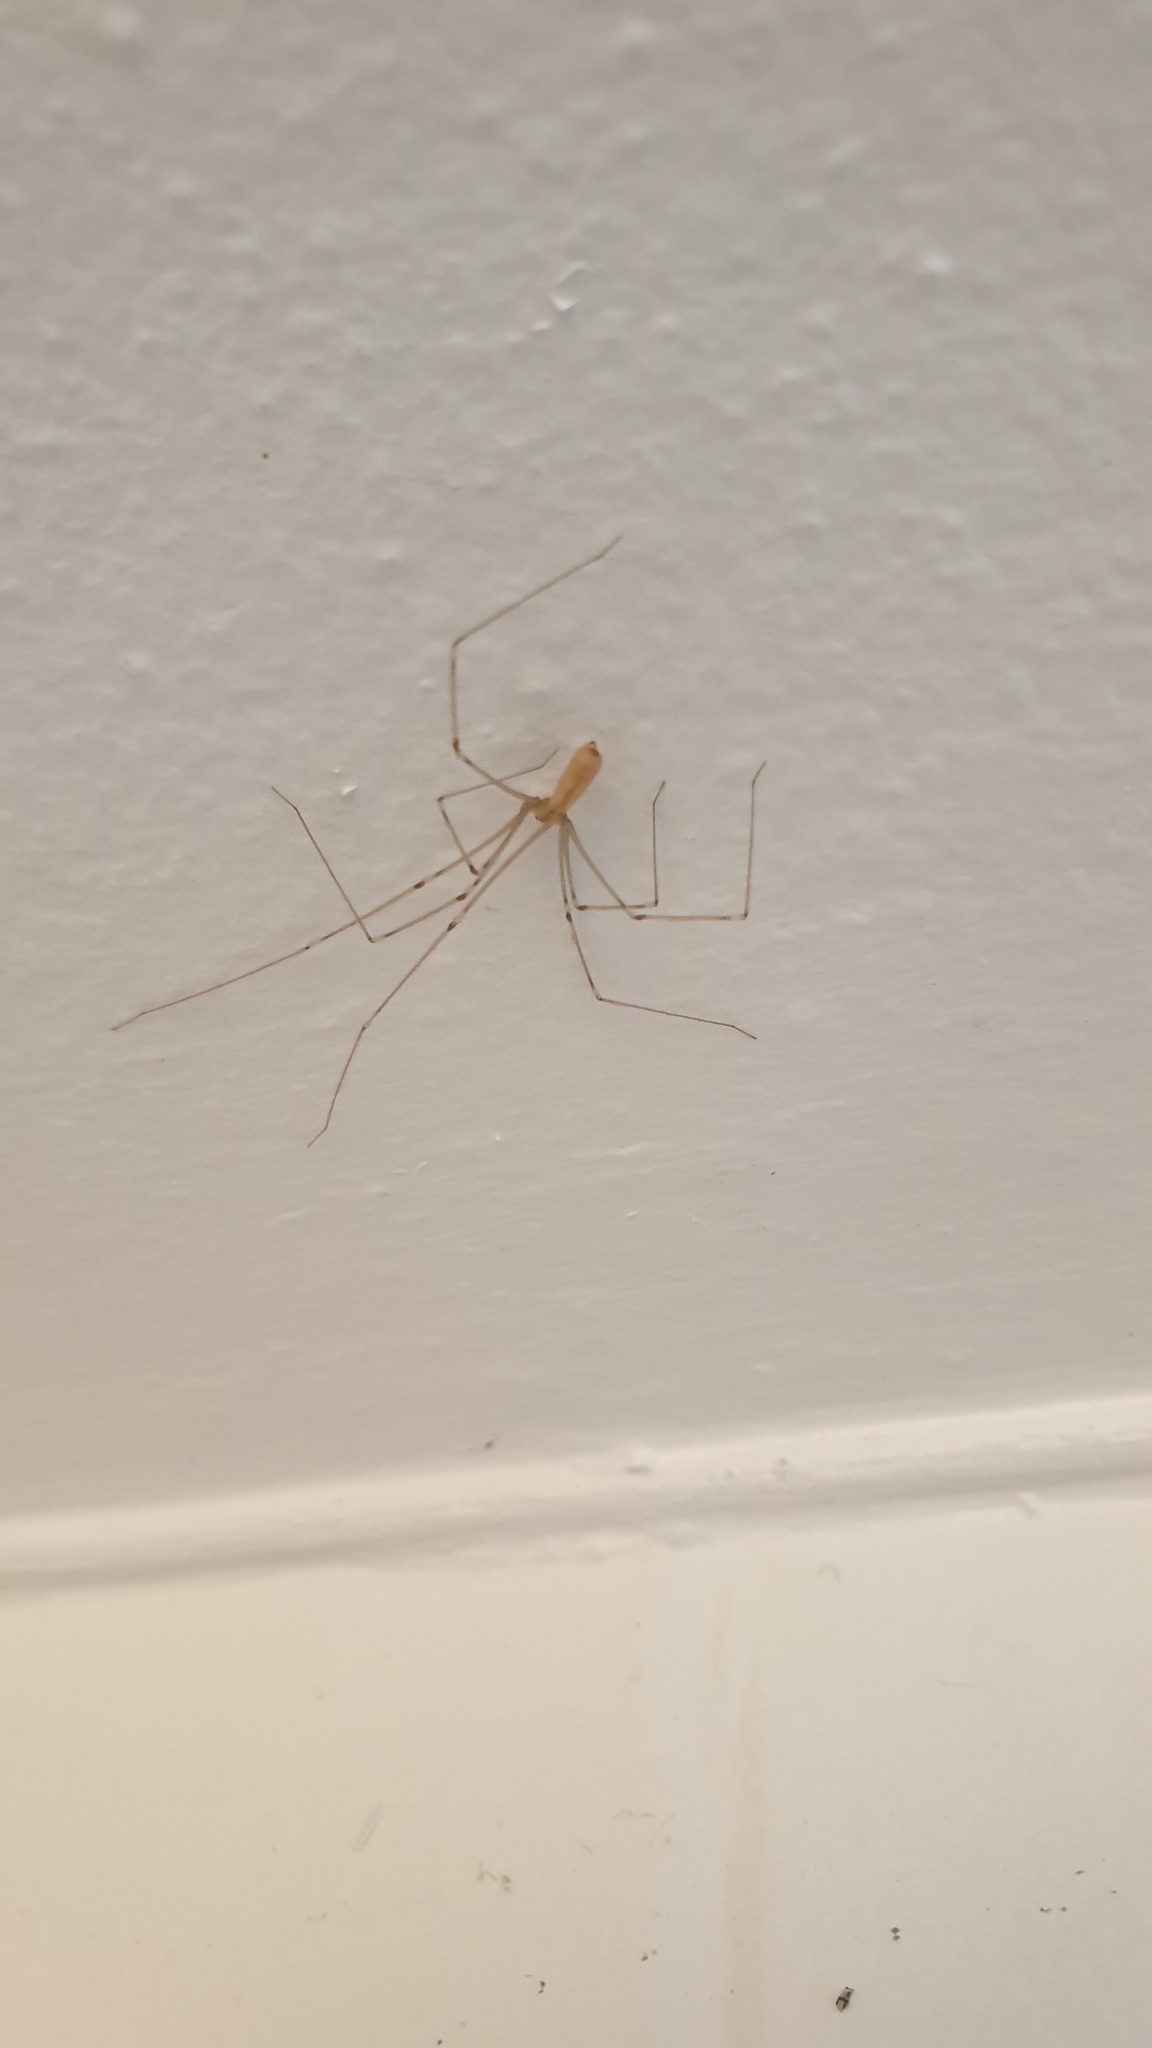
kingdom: Animalia
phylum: Arthropoda
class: Arachnida
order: Araneae
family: Pholcidae
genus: Pholcus
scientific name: Pholcus phalangioides
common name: Longbodied cellar spider
